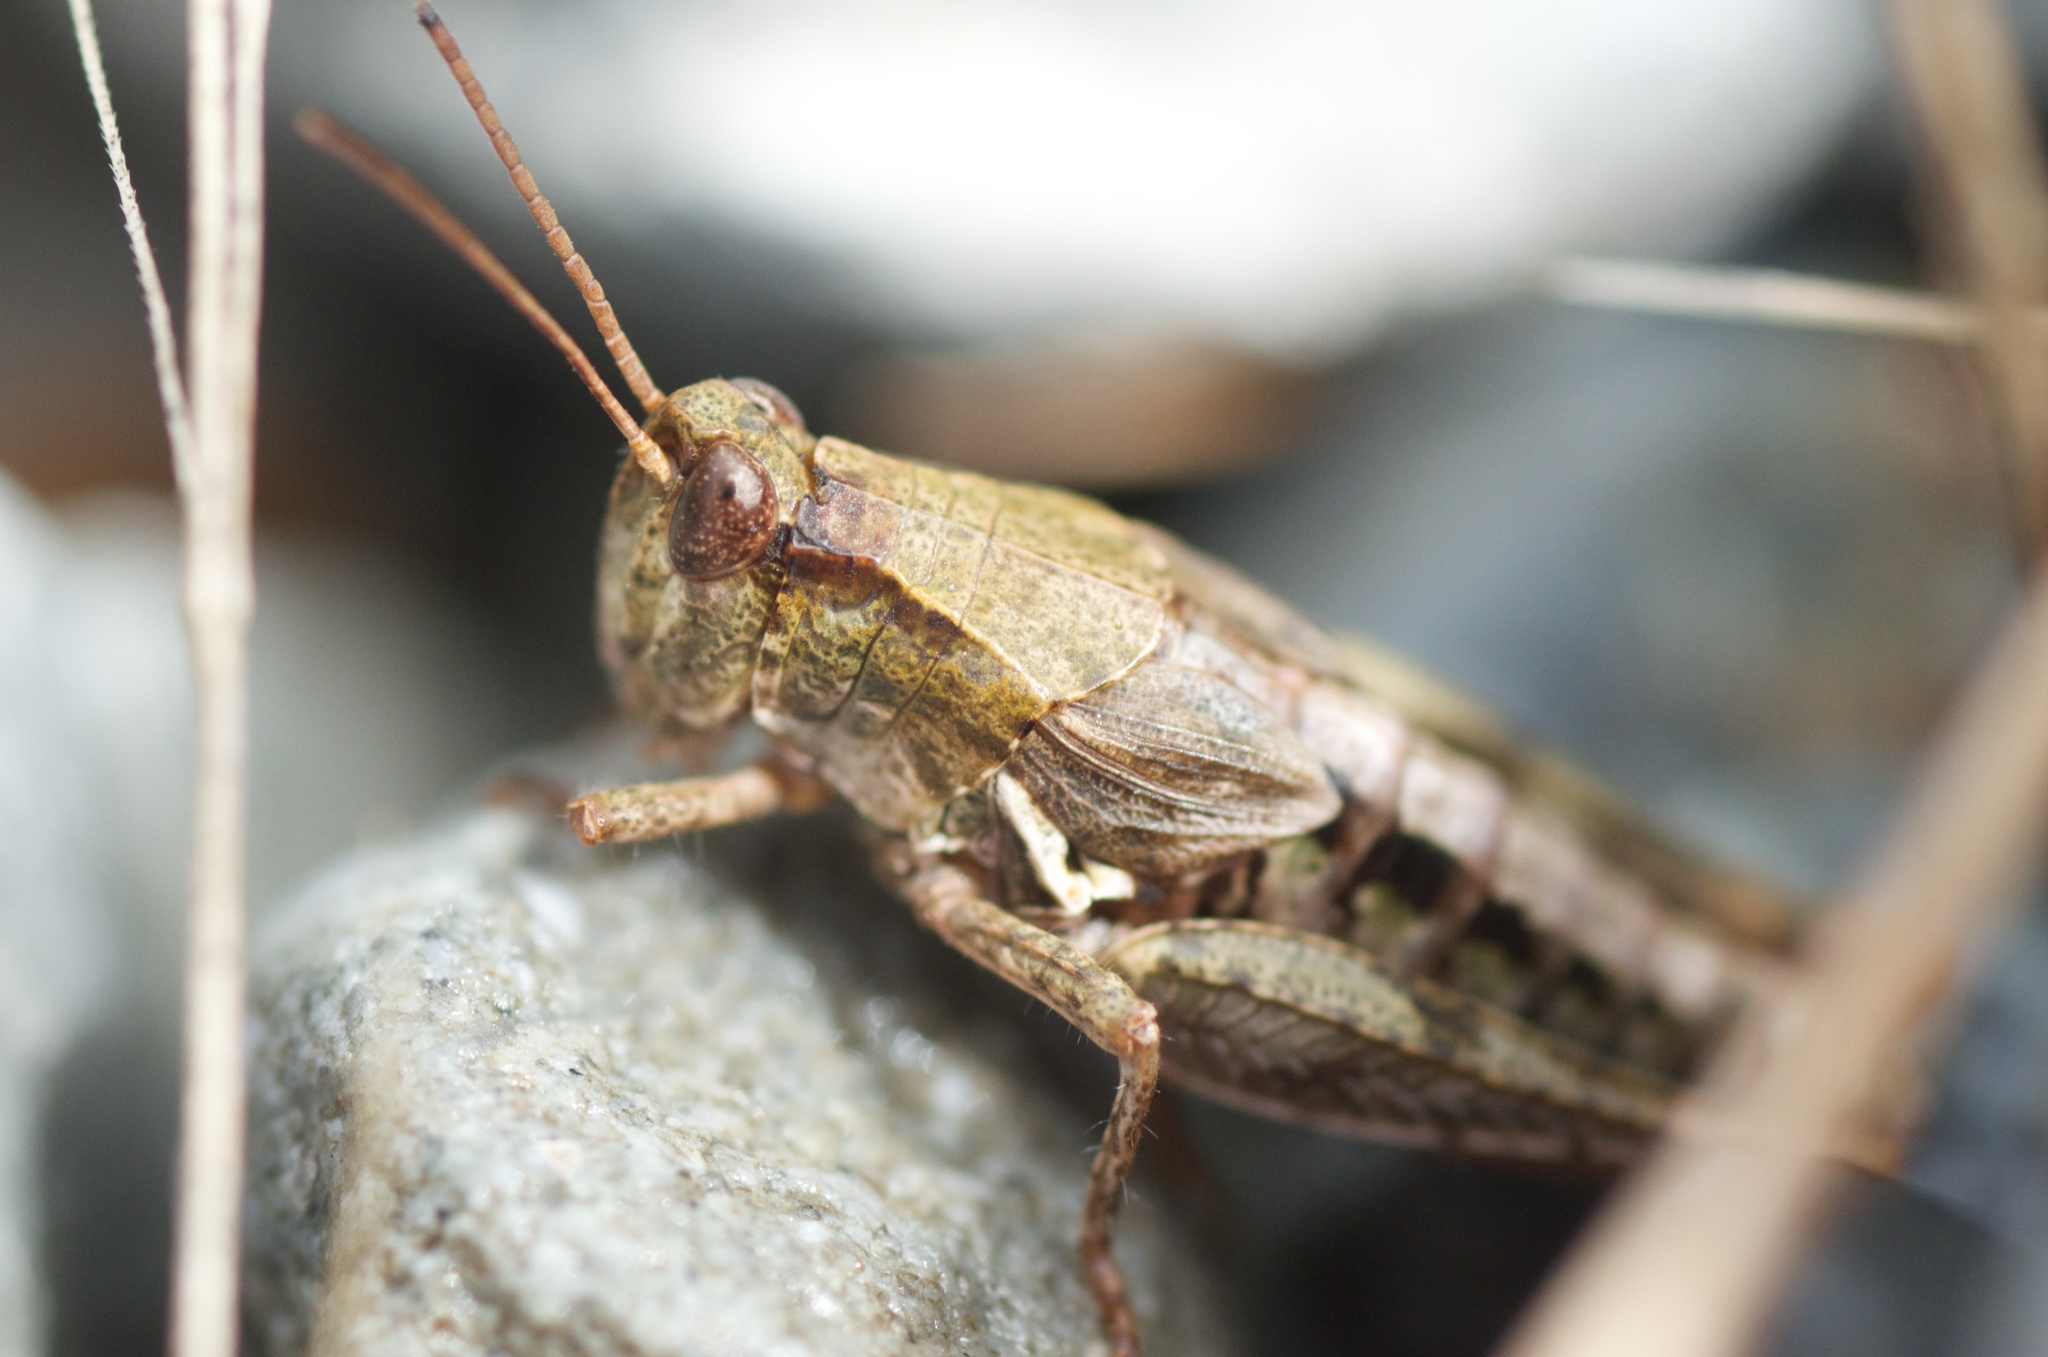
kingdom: Animalia
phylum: Arthropoda
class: Insecta
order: Orthoptera
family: Acrididae
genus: Phaulacridium
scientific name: Phaulacridium marginale
